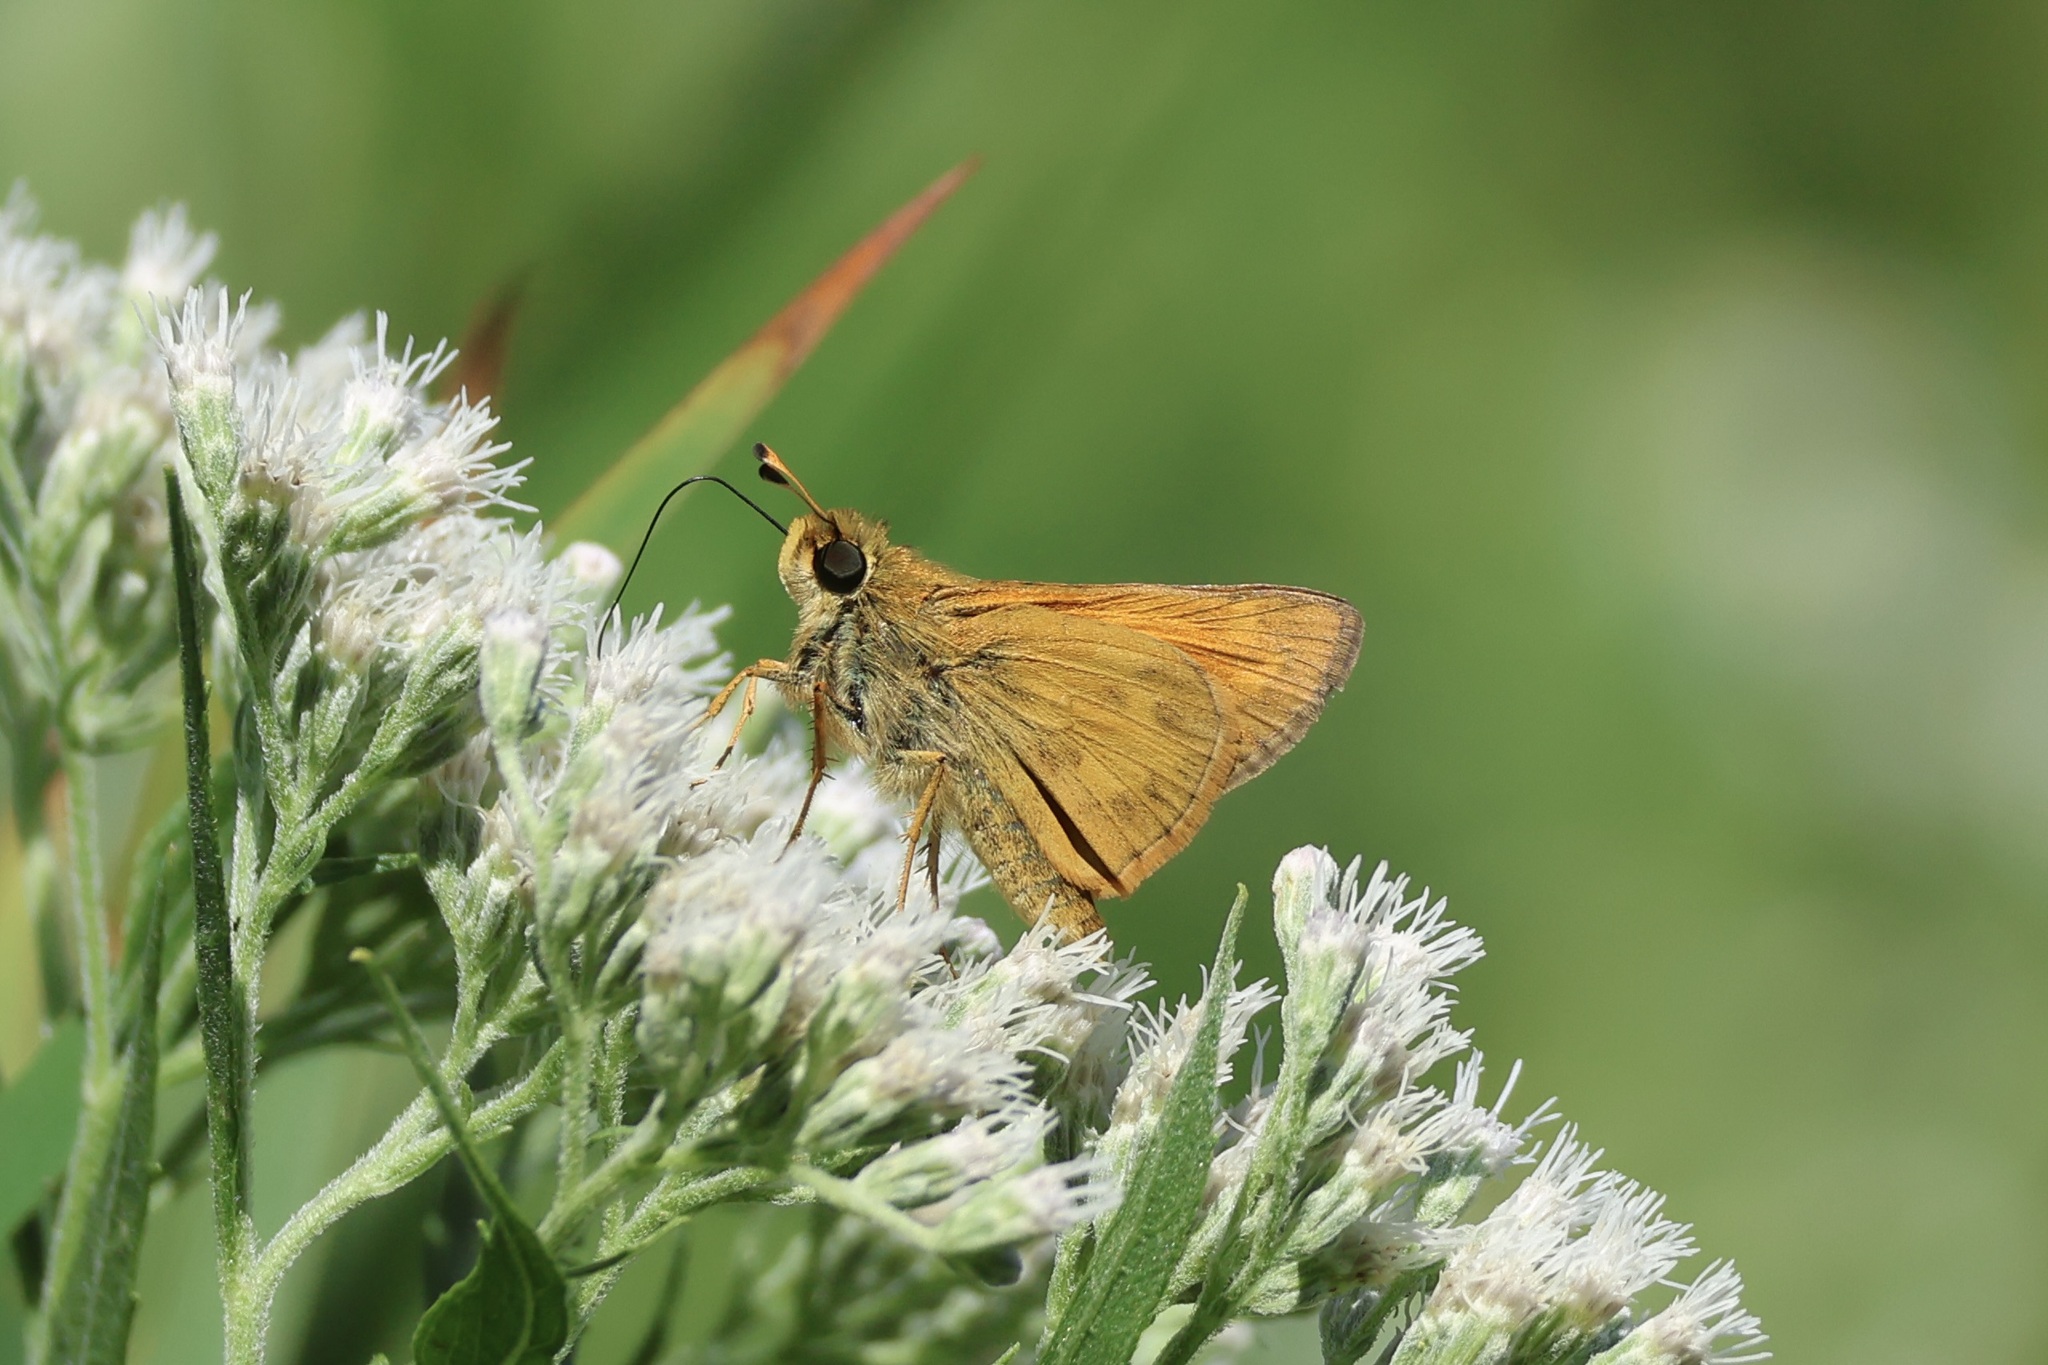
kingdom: Animalia
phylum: Arthropoda
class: Insecta
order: Lepidoptera
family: Hesperiidae
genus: Atalopedes
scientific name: Atalopedes
